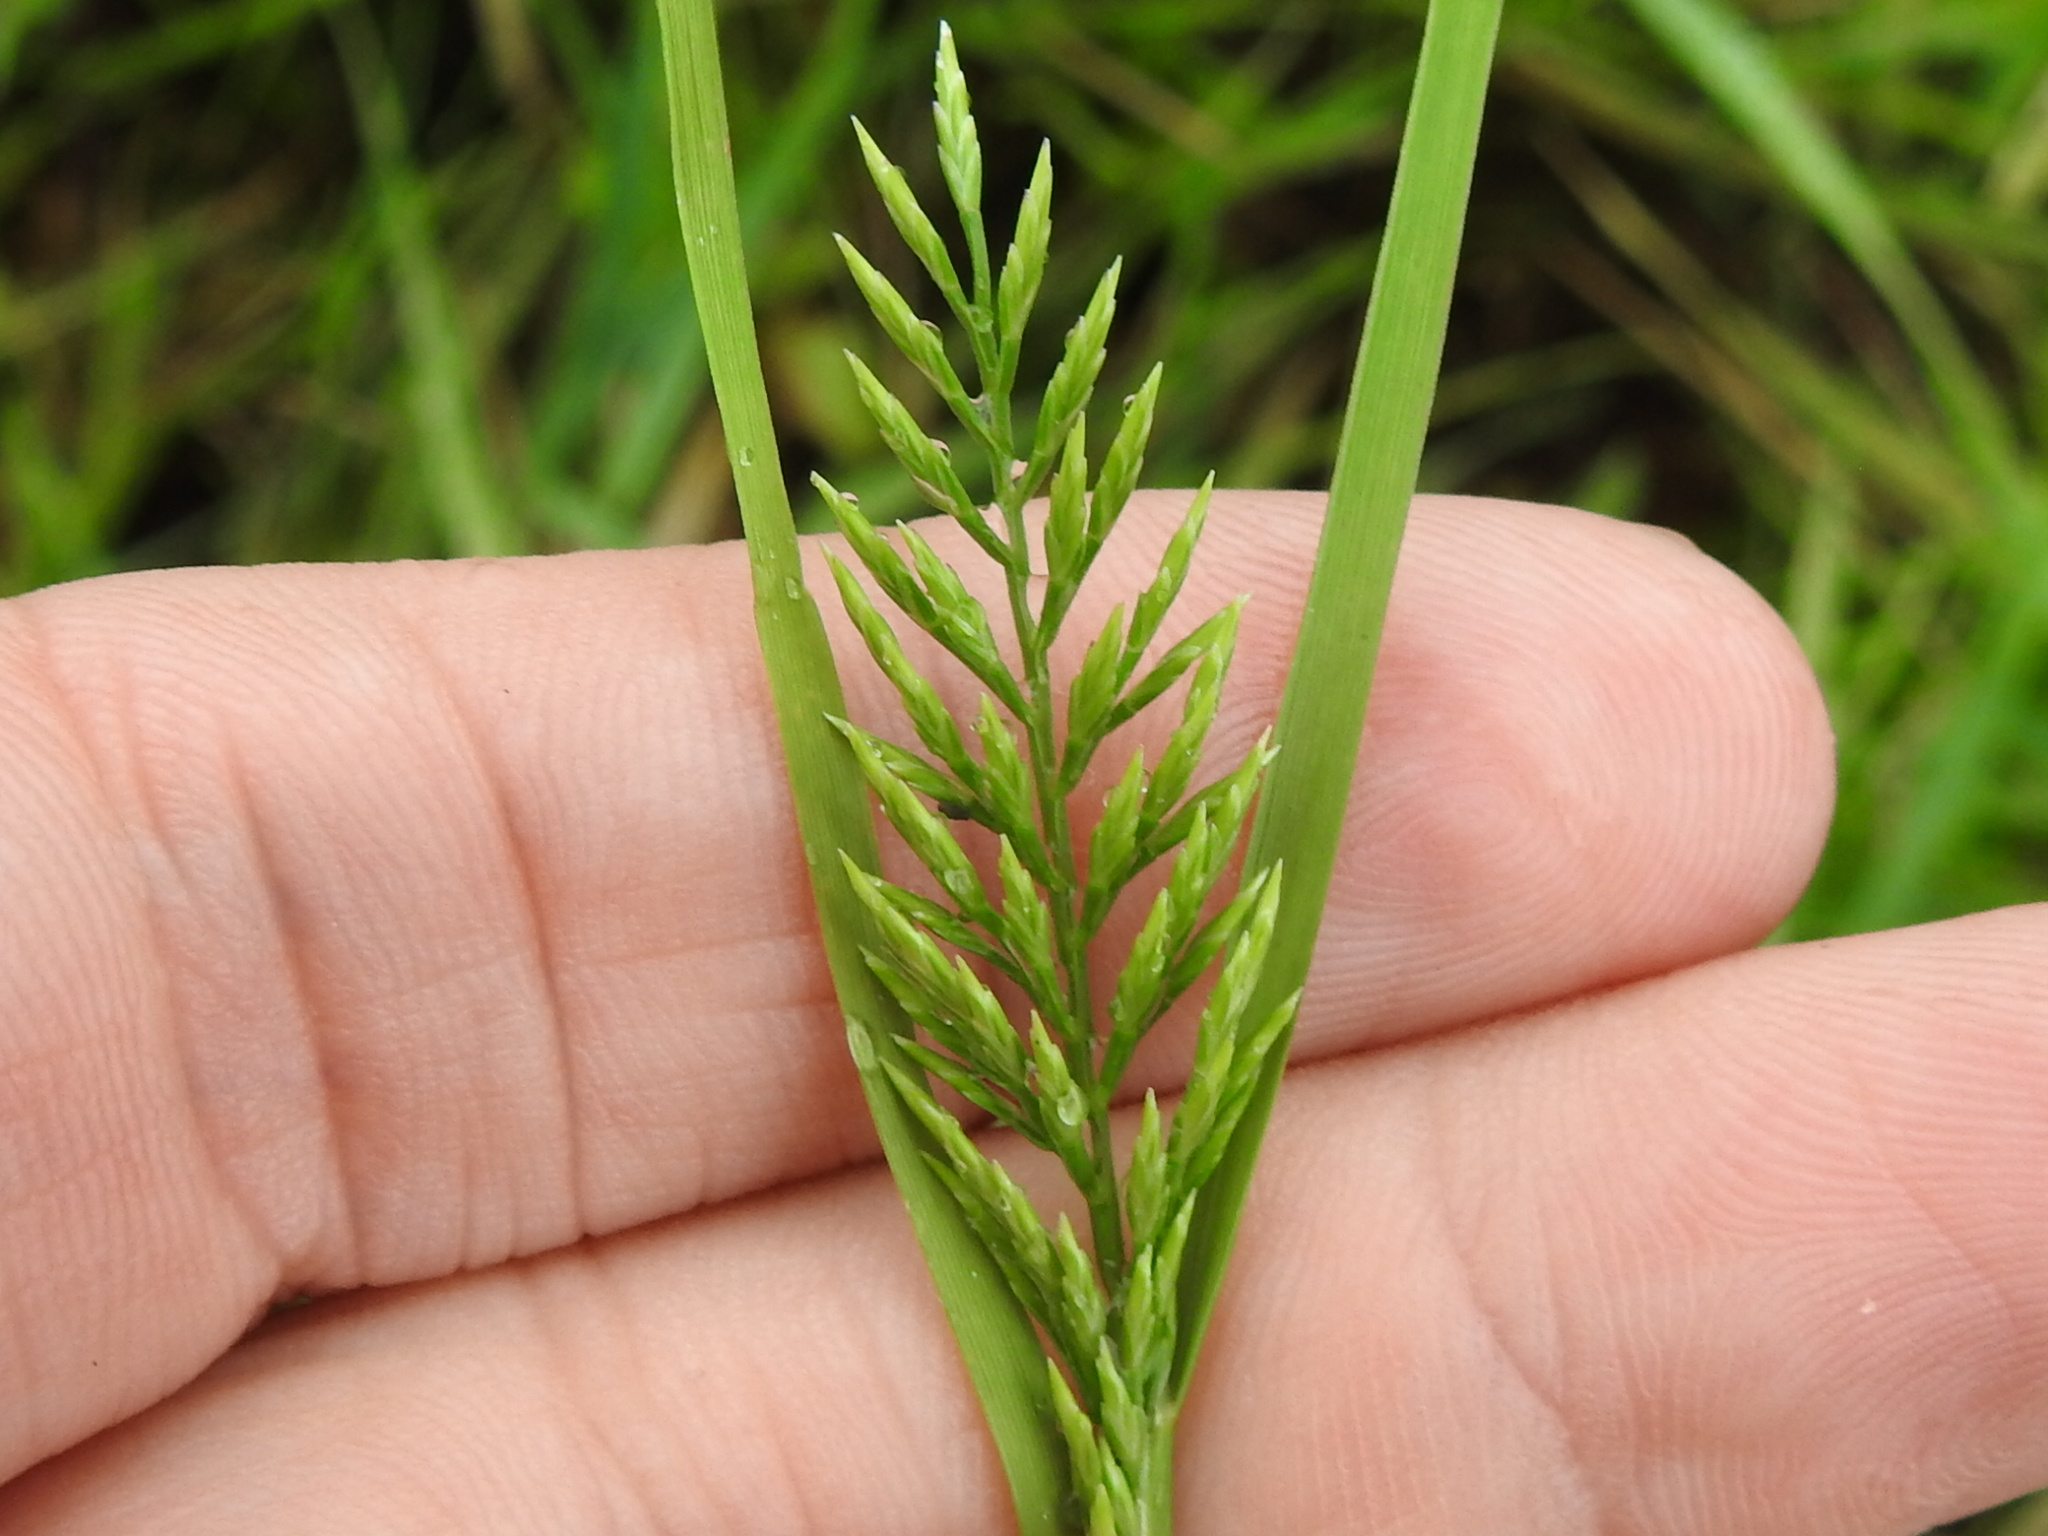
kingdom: Plantae
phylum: Tracheophyta
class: Liliopsida
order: Poales
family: Poaceae
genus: Catapodium
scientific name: Catapodium rigidum
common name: Fern-grass
